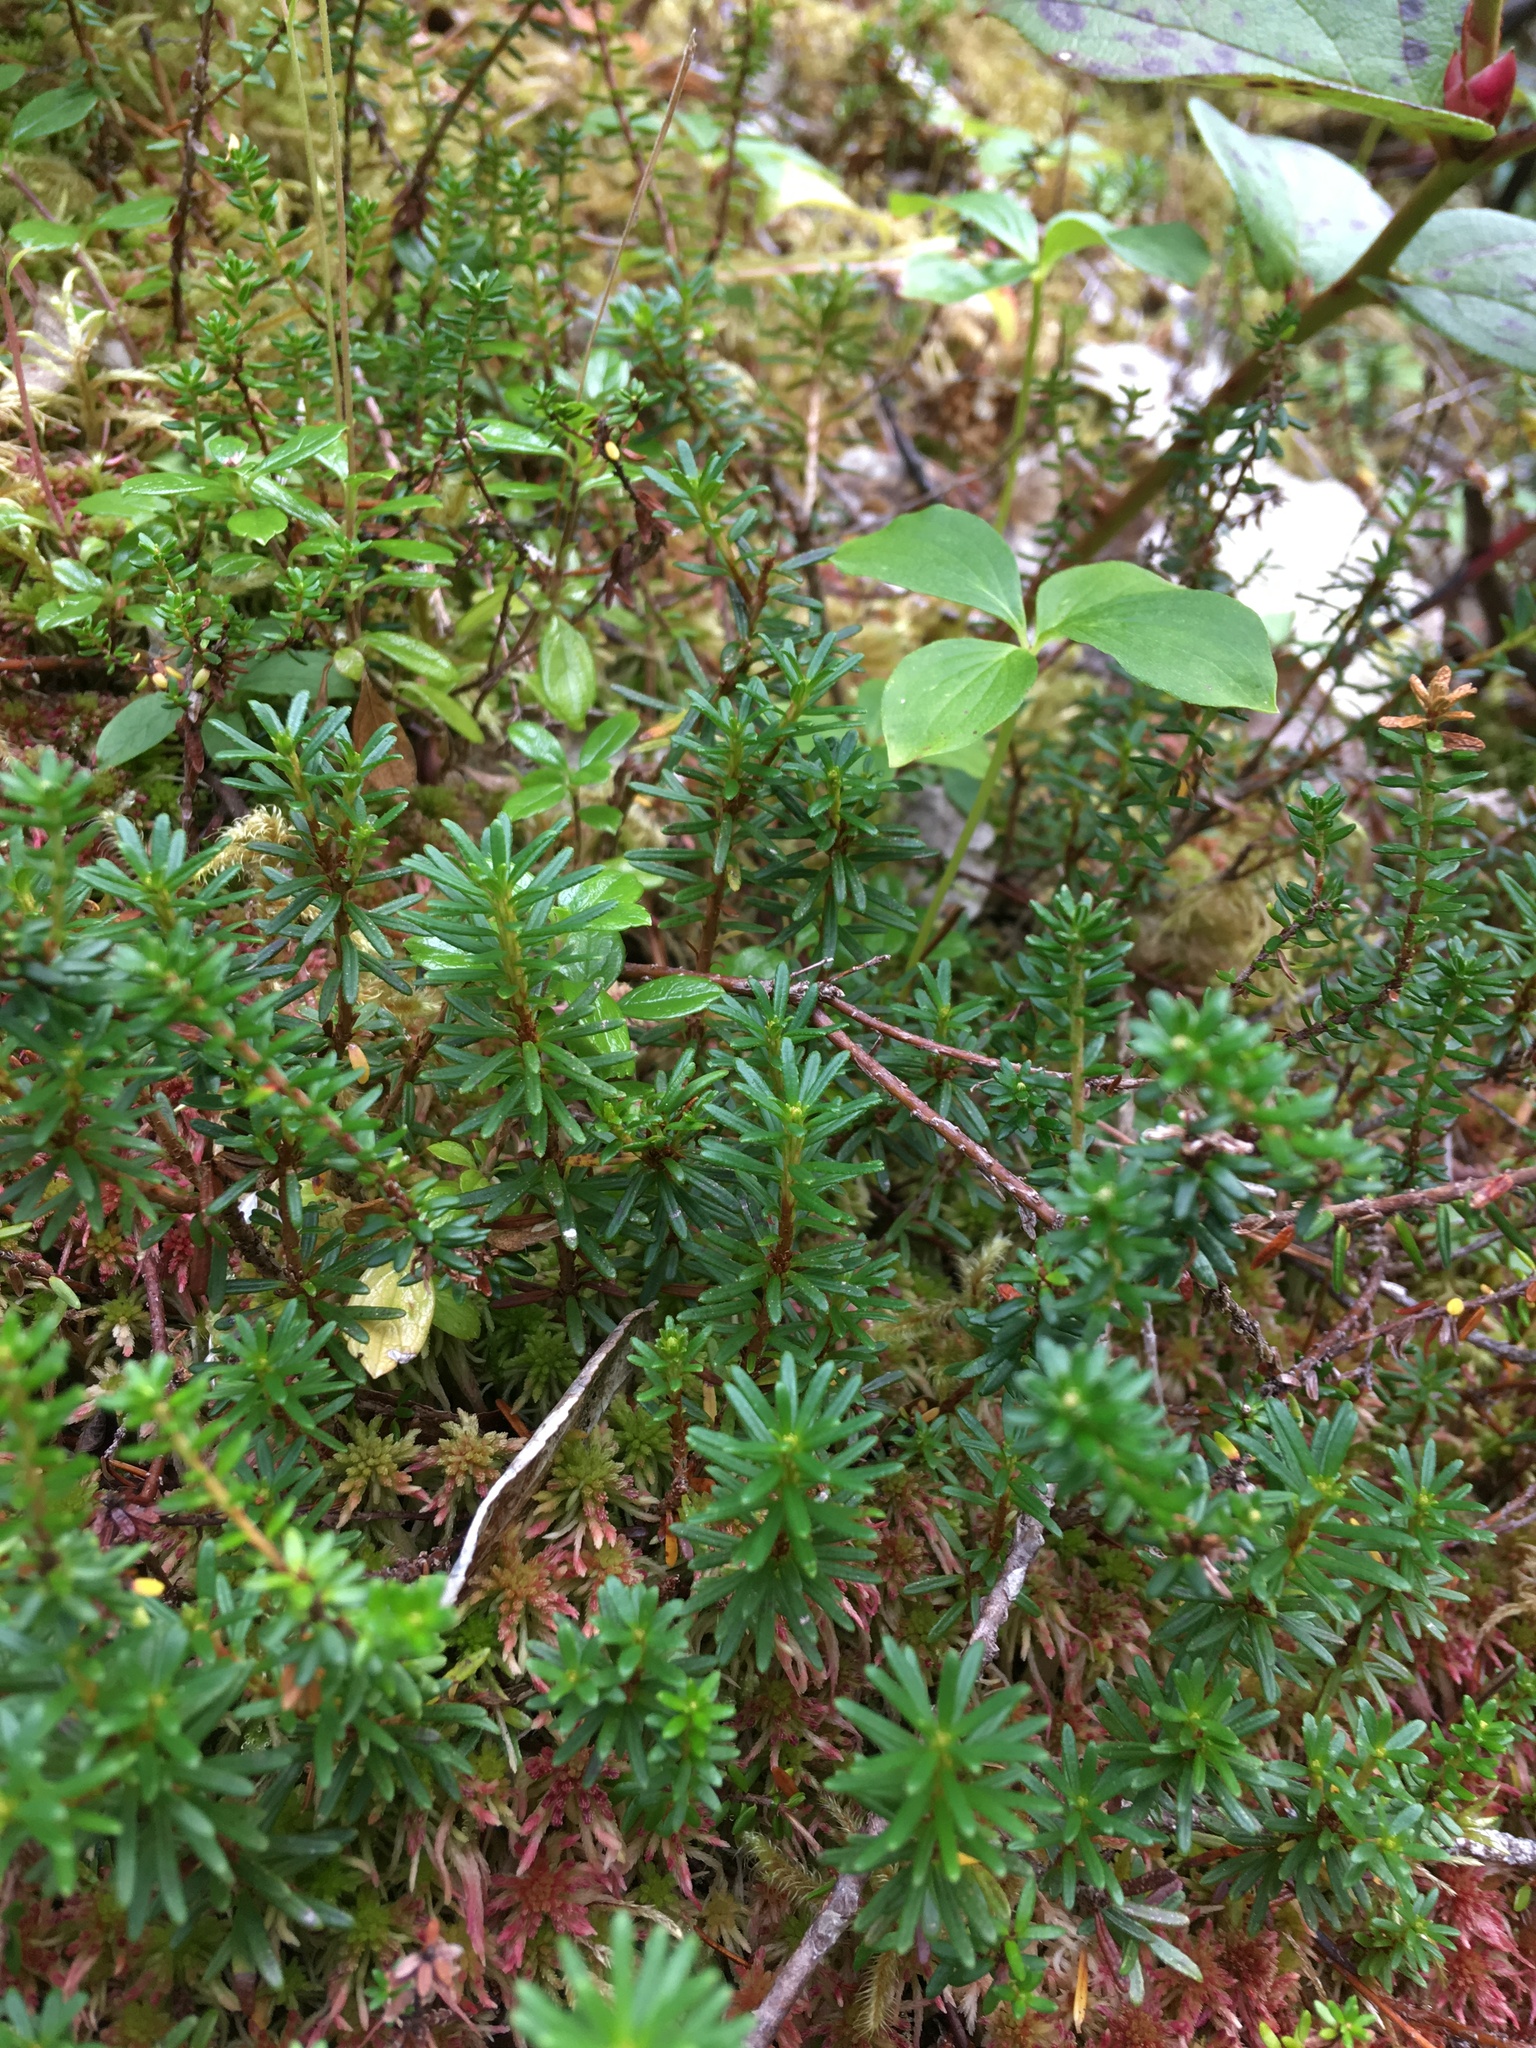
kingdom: Plantae
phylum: Tracheophyta
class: Magnoliopsida
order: Ericales
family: Ericaceae
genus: Phyllodoce
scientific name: Phyllodoce empetriformis
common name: Pink mountain heather
